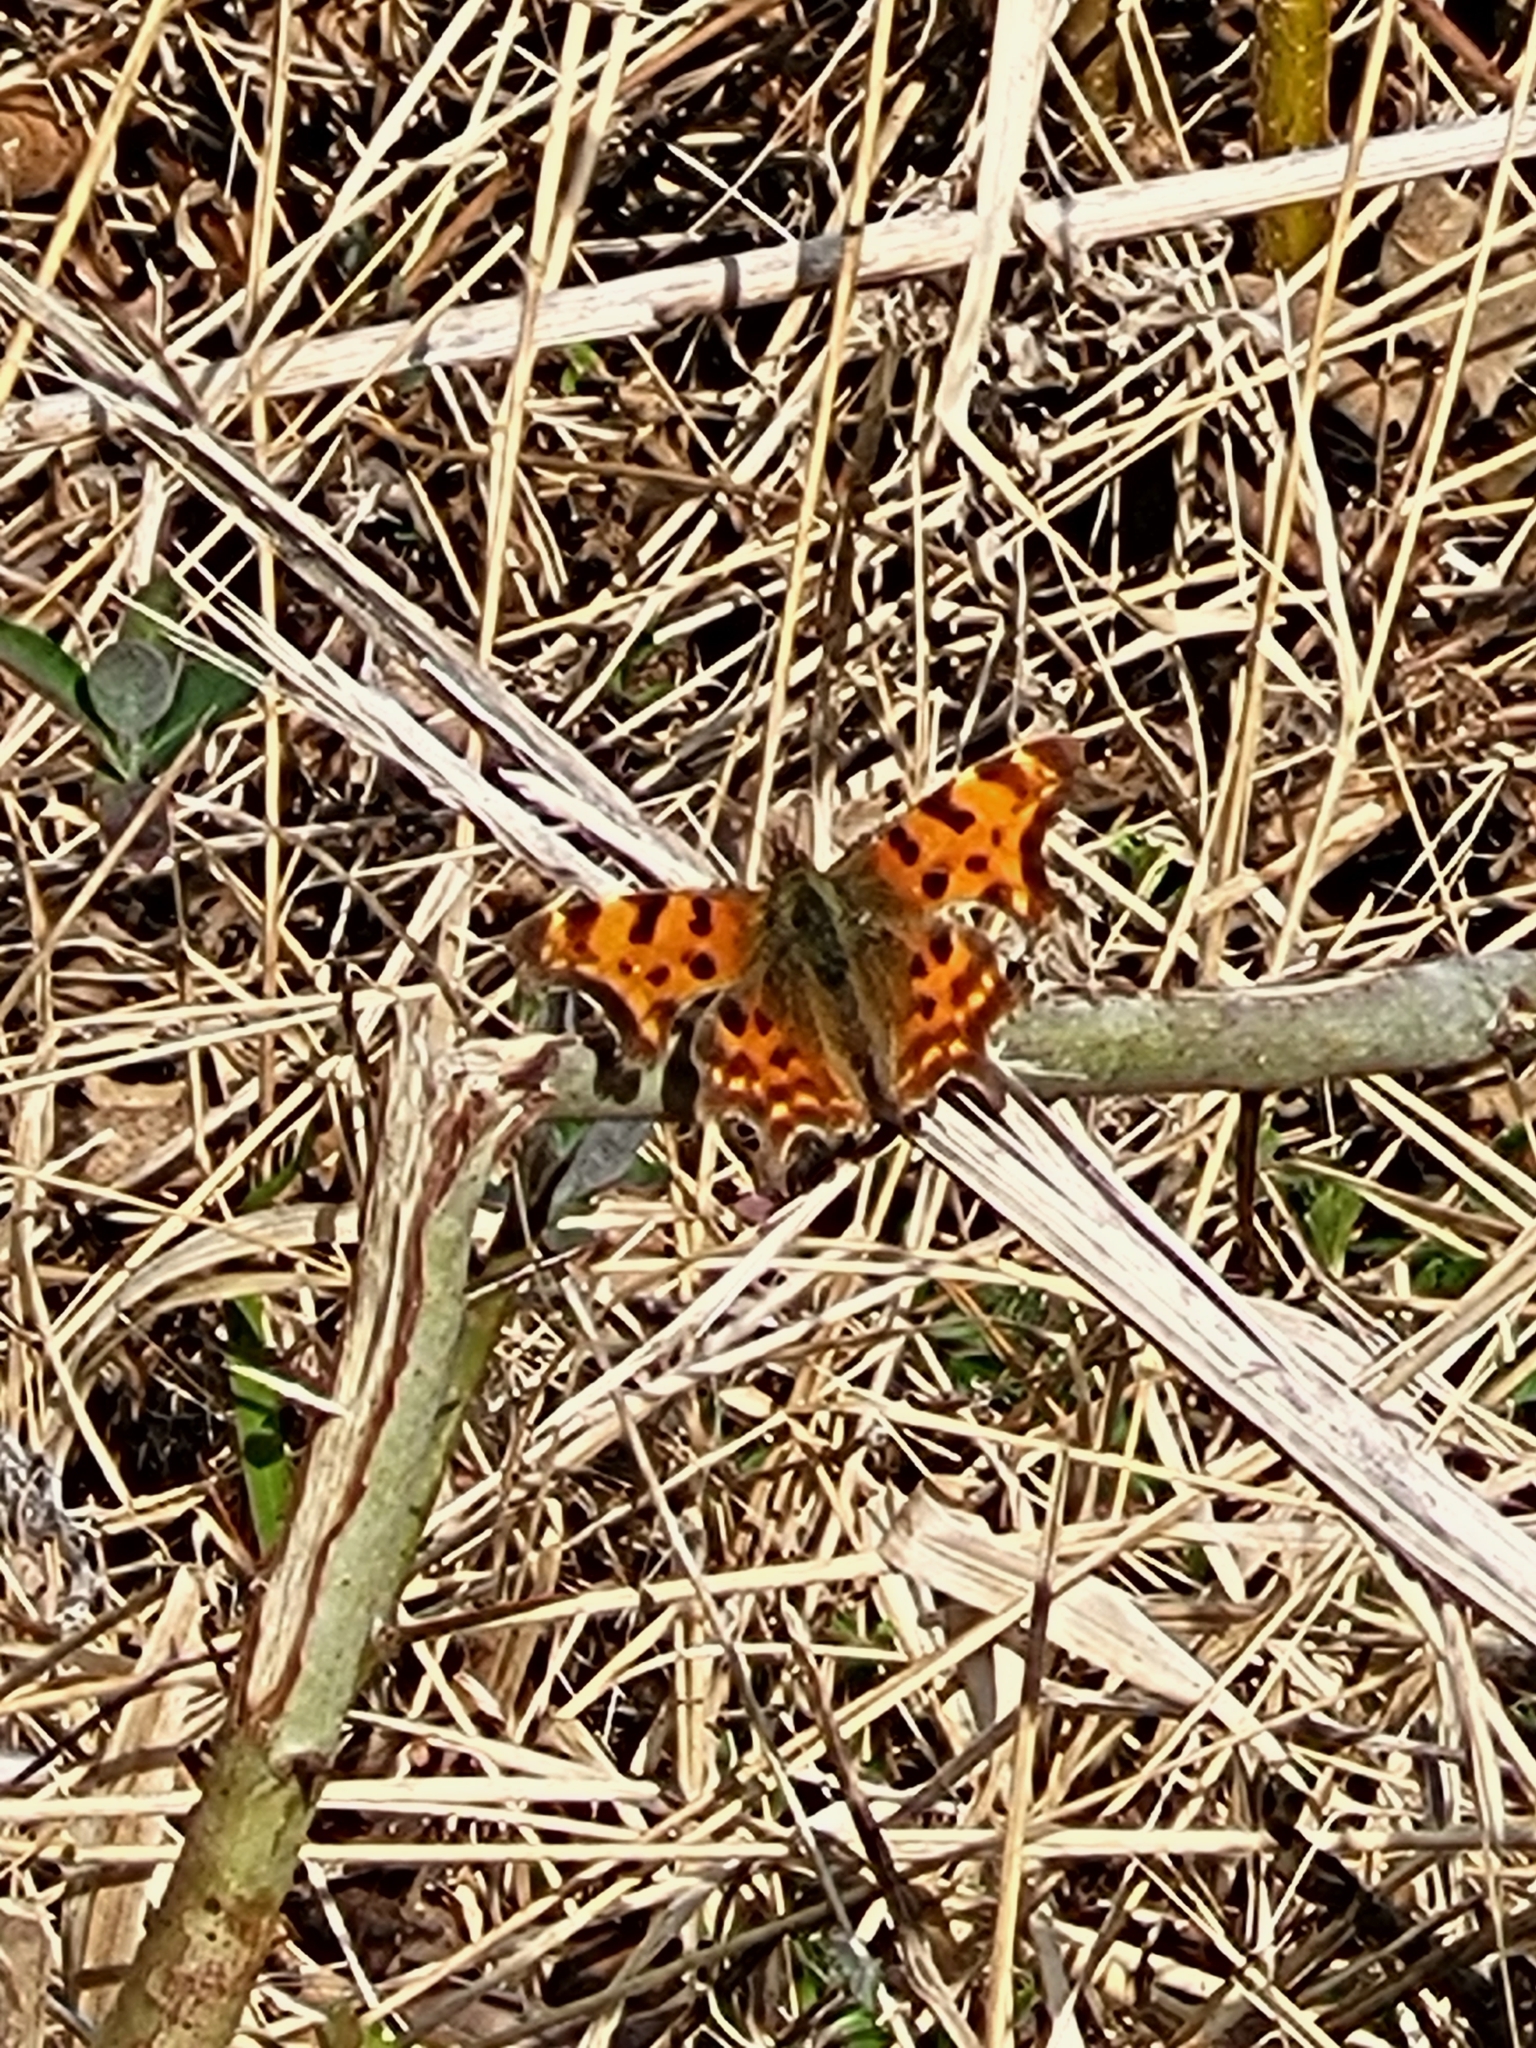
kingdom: Animalia
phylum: Arthropoda
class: Insecta
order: Lepidoptera
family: Nymphalidae
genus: Polygonia
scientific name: Polygonia c-album
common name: Comma
